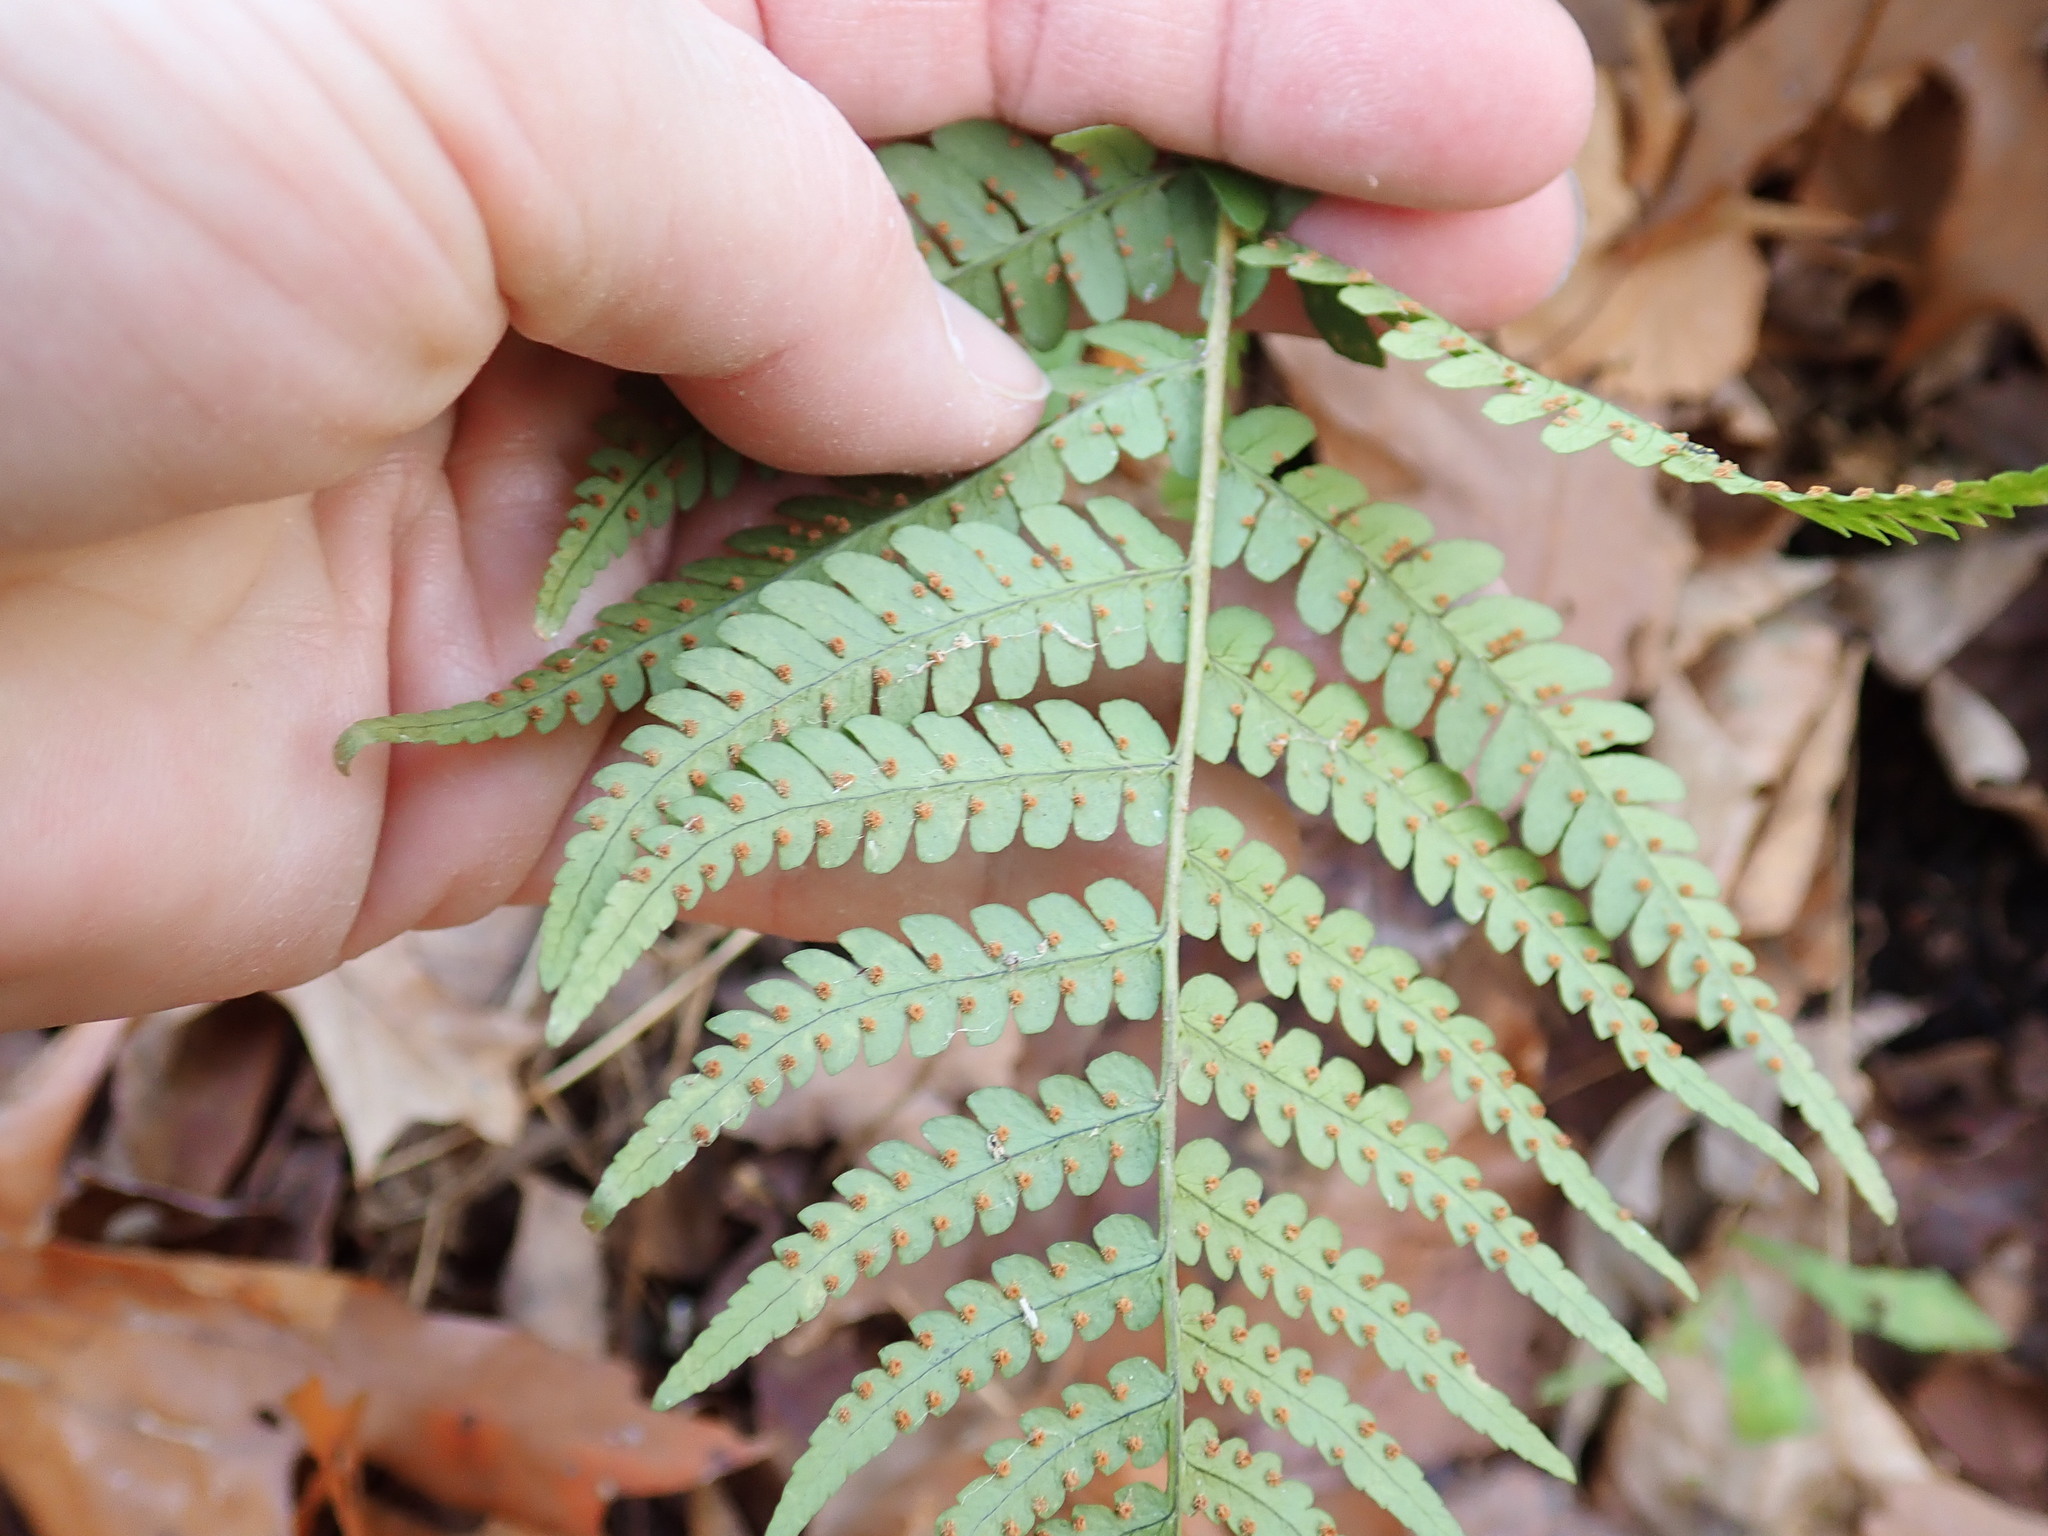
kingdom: Plantae
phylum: Tracheophyta
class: Polypodiopsida
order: Polypodiales
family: Dryopteridaceae
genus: Dryopteris
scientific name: Dryopteris marginalis
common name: Marginal wood fern
